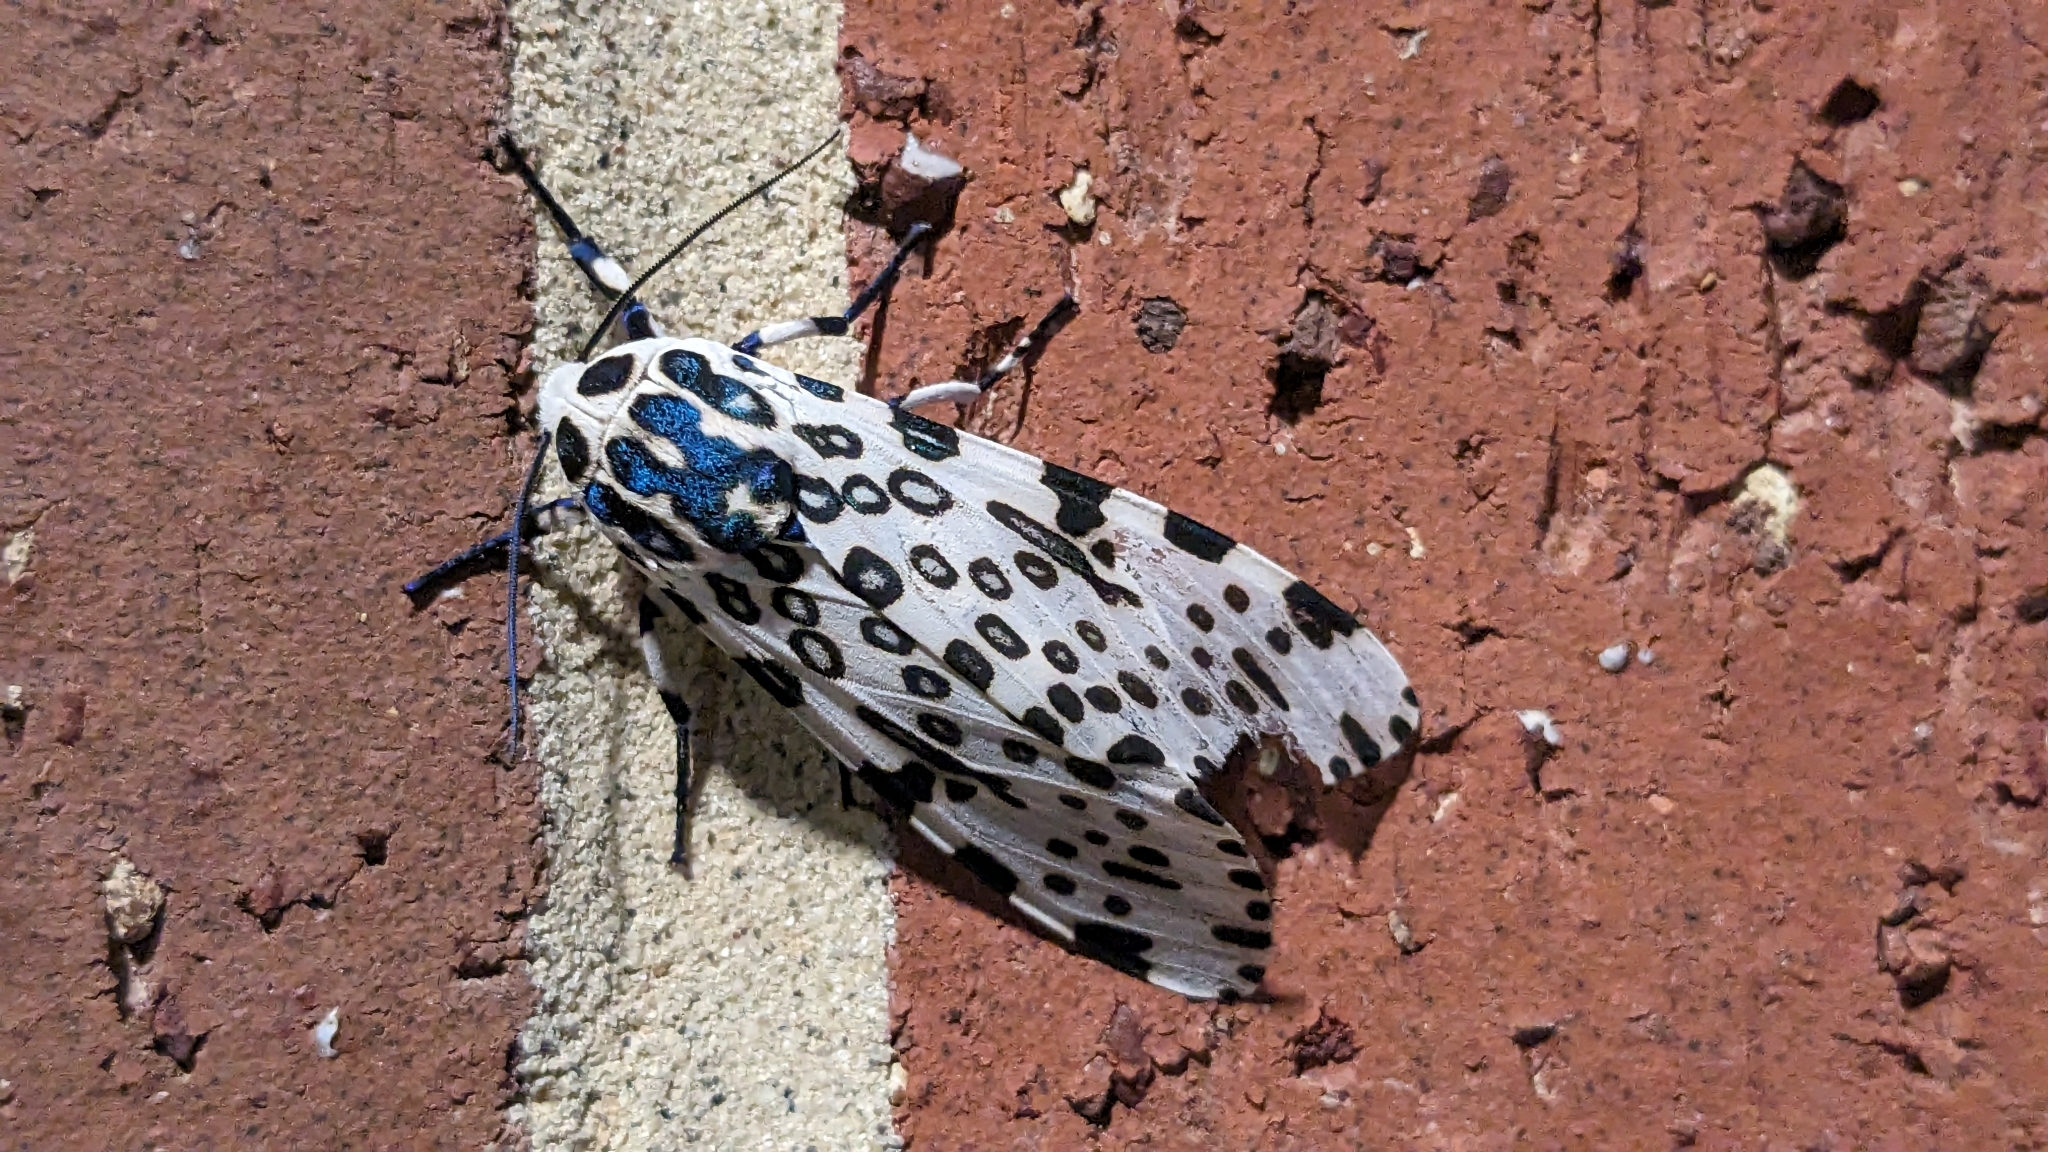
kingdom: Animalia
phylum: Arthropoda
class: Insecta
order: Lepidoptera
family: Erebidae
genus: Hypercompe
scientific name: Hypercompe scribonia
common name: Giant leopard moth
